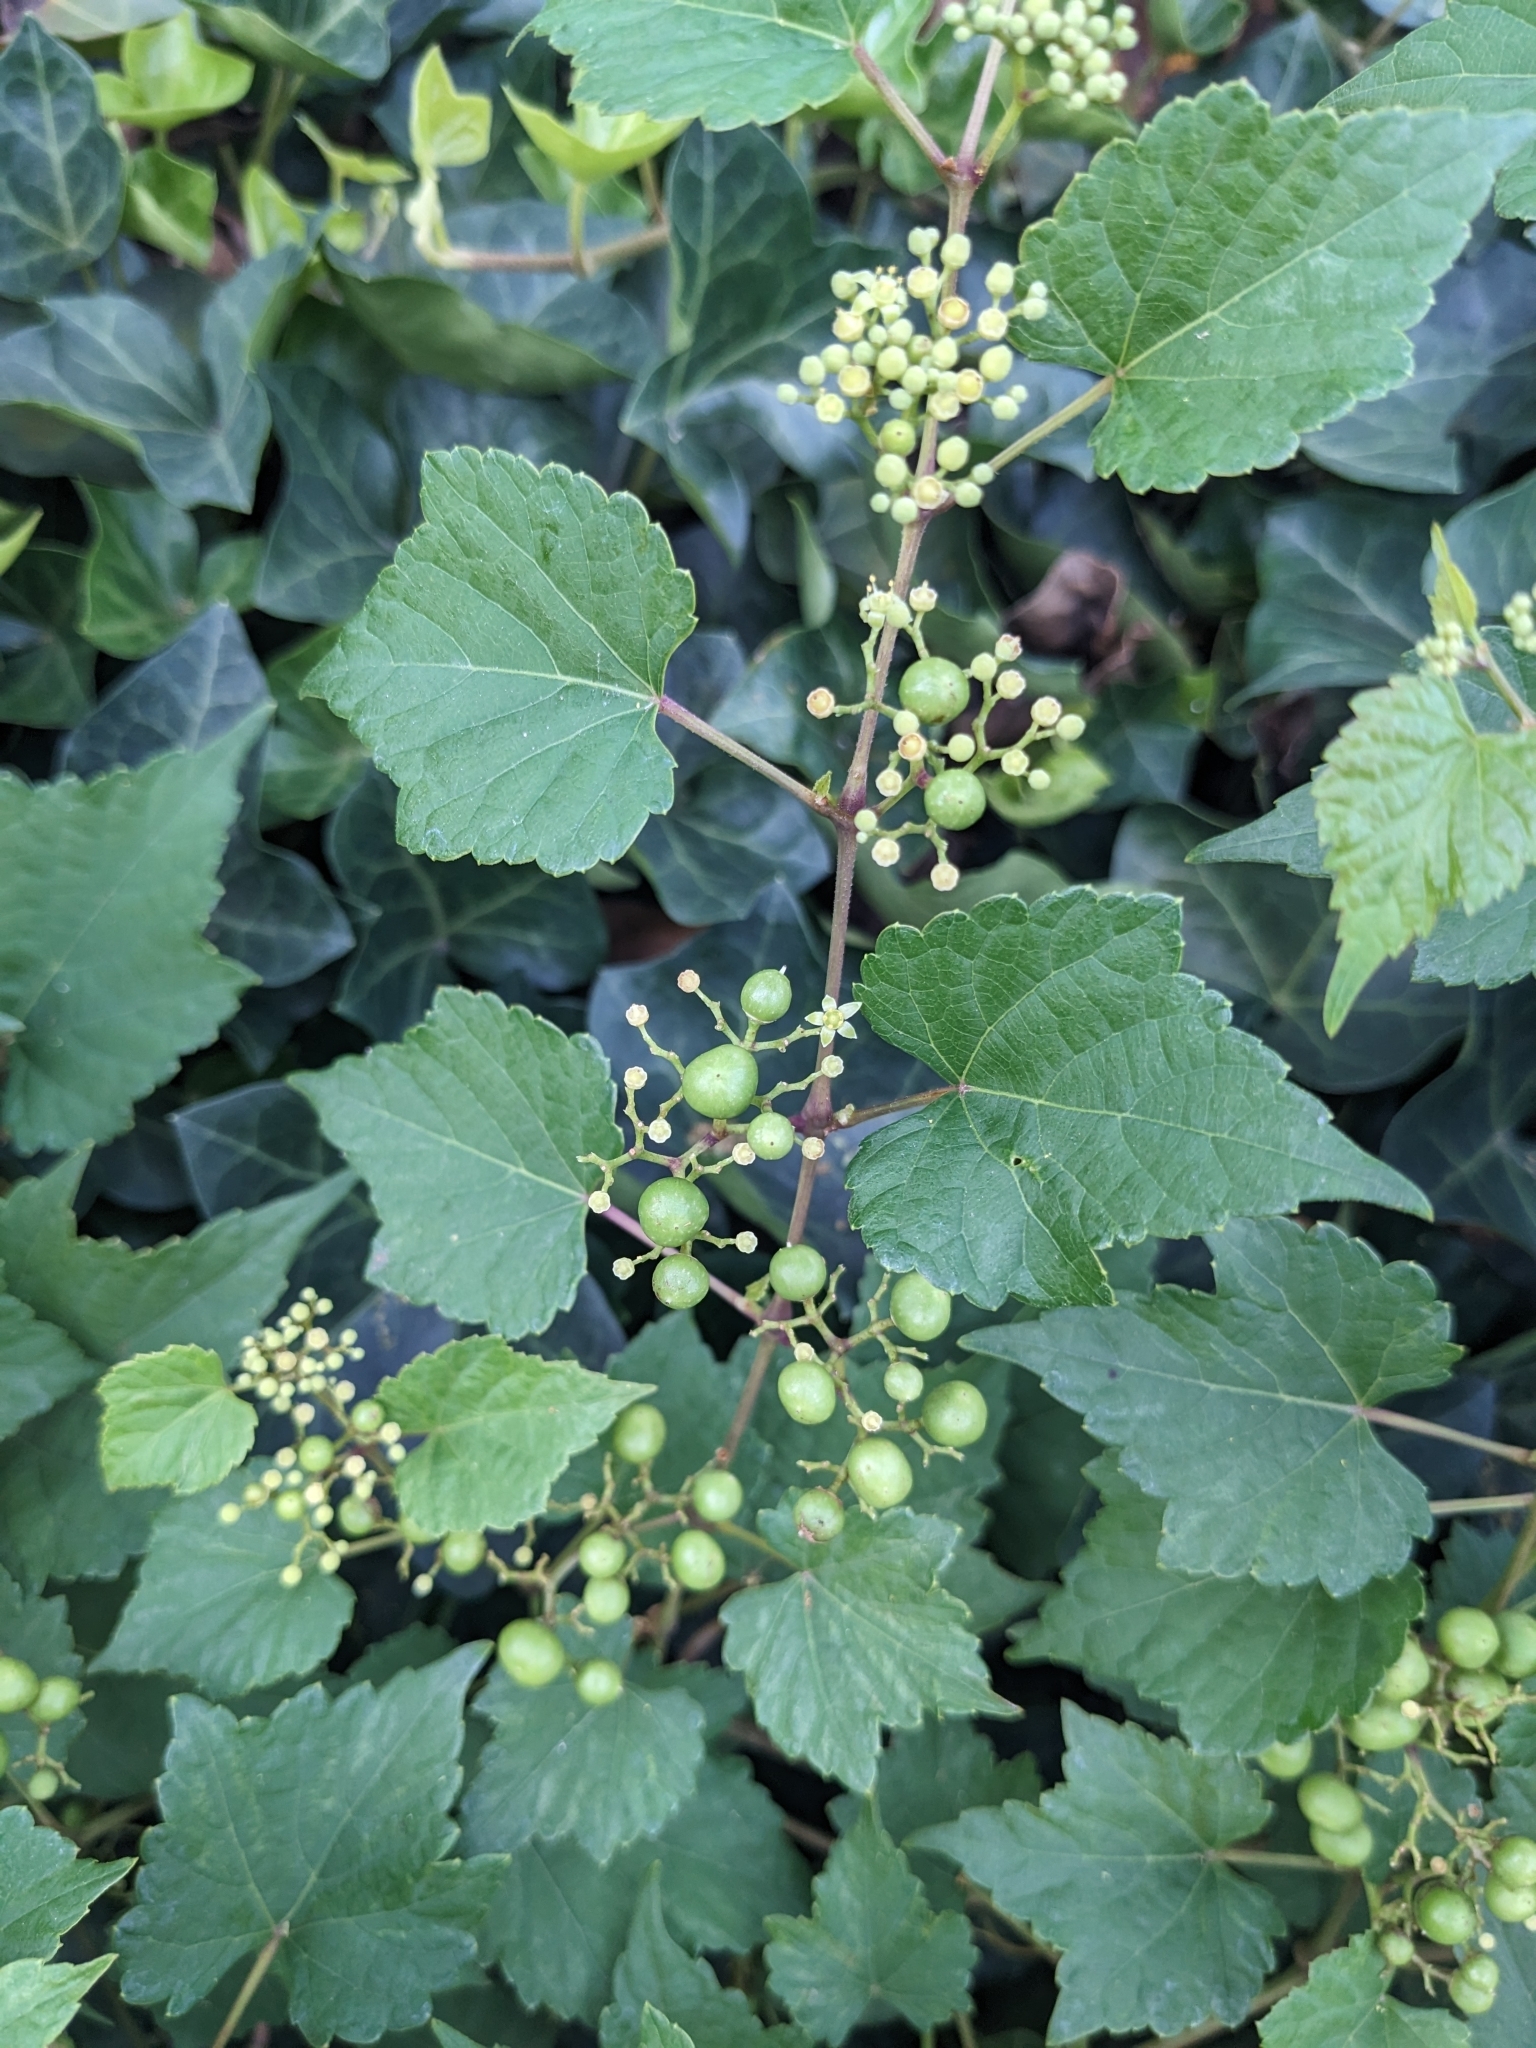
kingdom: Plantae
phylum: Tracheophyta
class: Magnoliopsida
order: Vitales
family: Vitaceae
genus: Ampelopsis
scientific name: Ampelopsis glandulosa
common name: Amur peppervine
